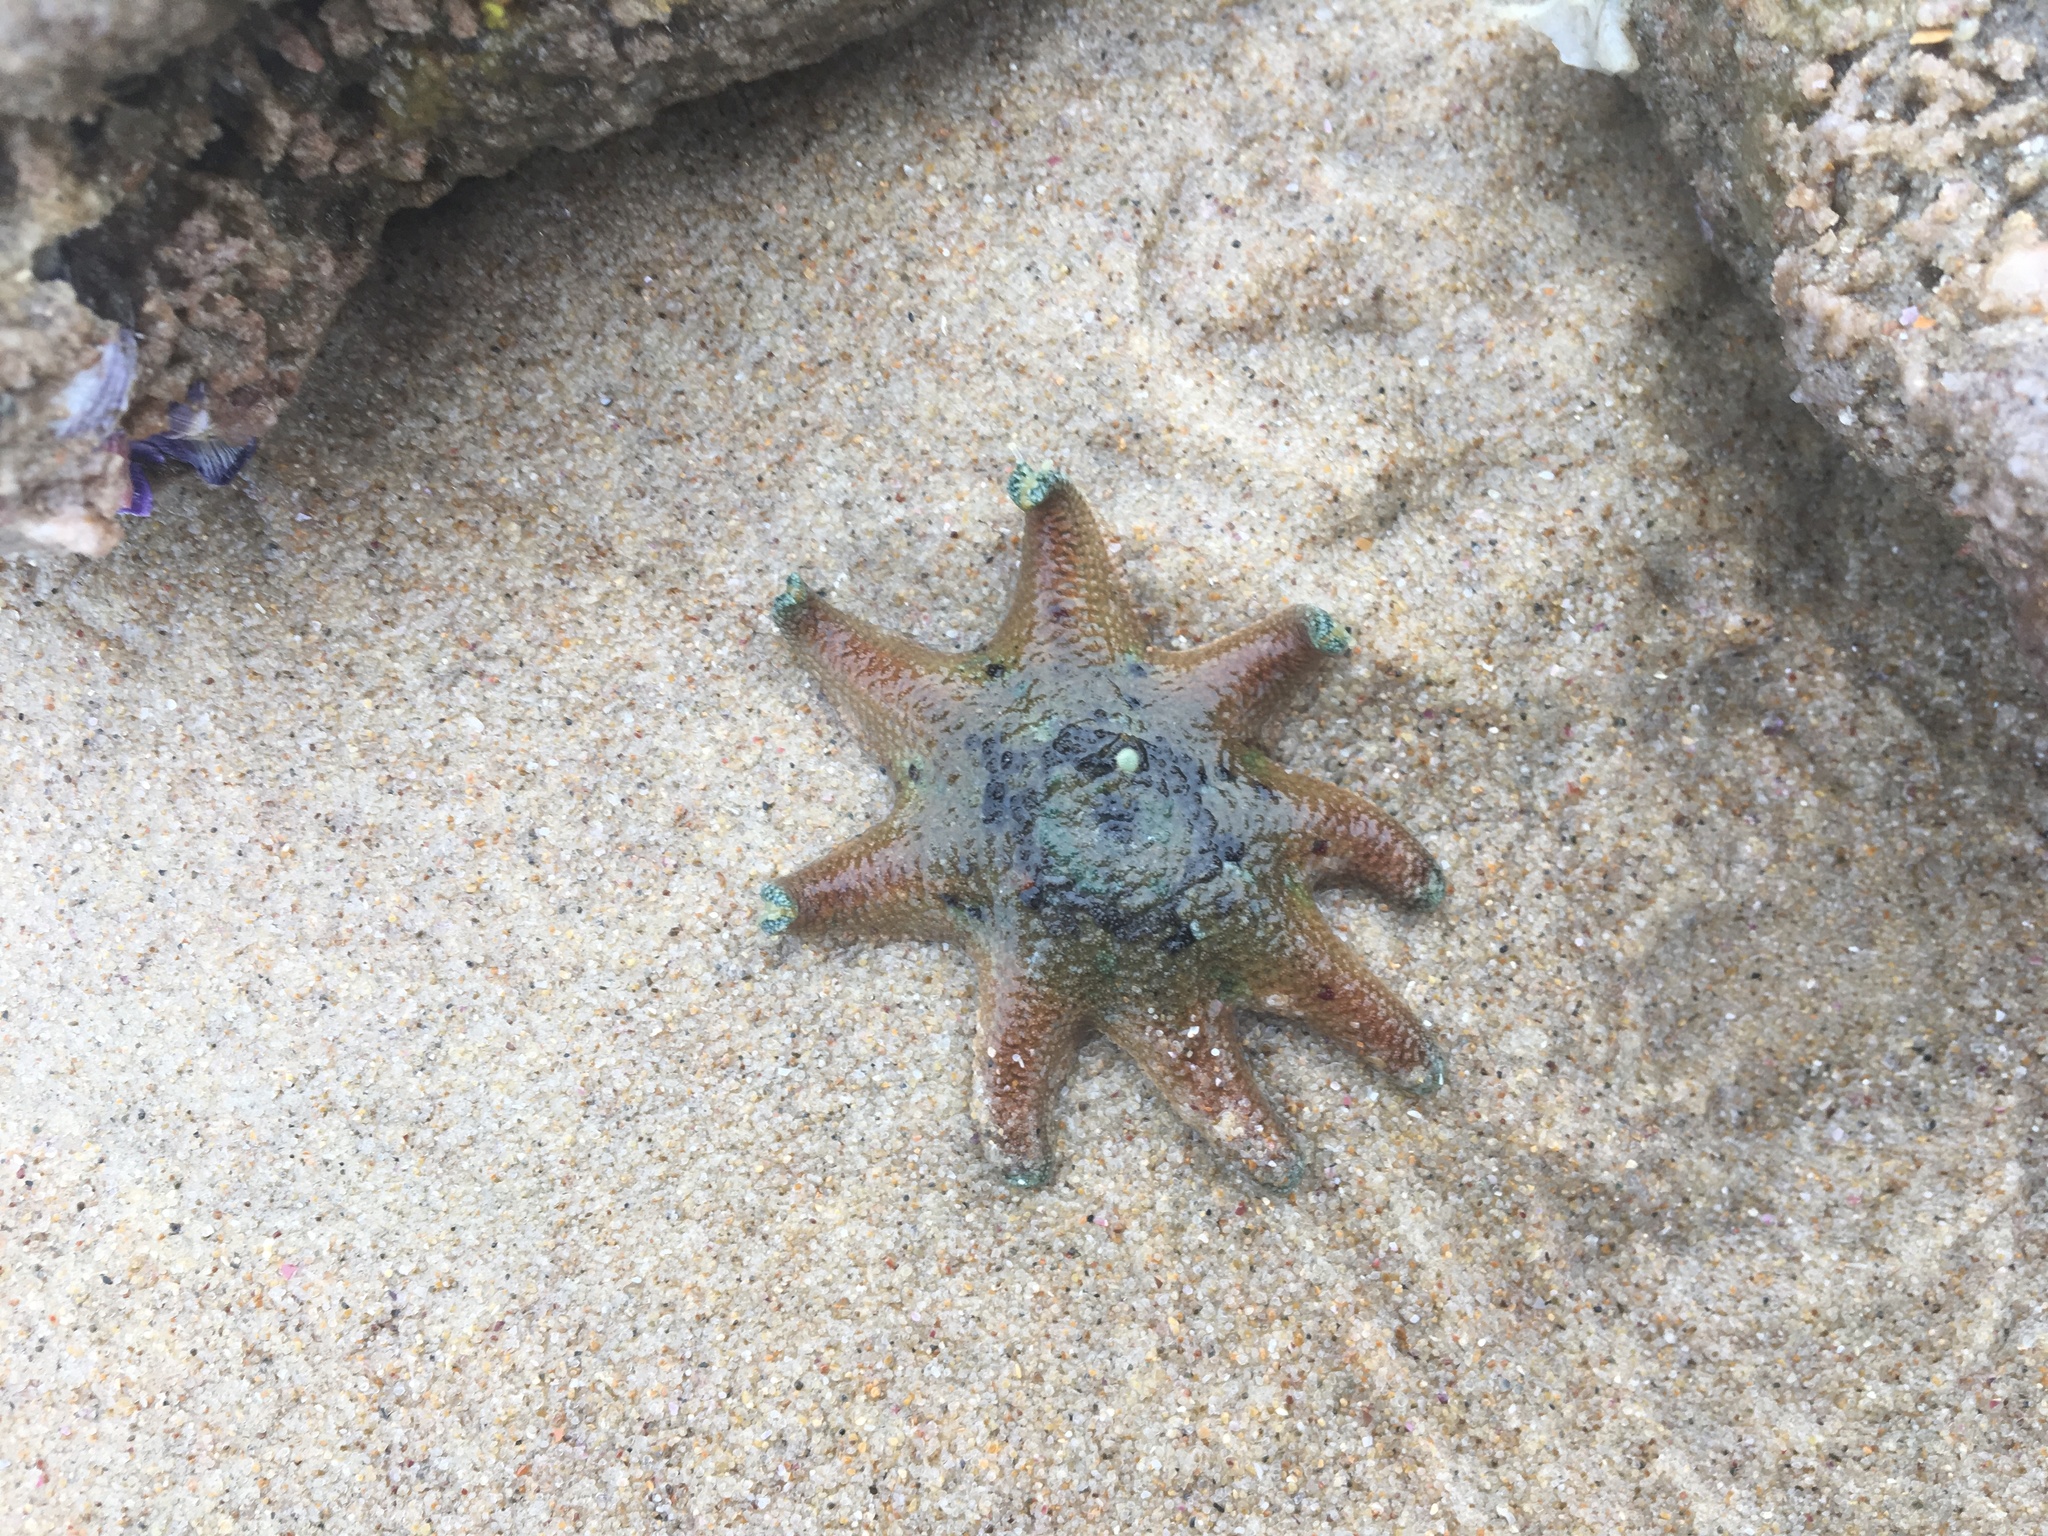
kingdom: Animalia
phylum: Echinodermata
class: Asteroidea
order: Valvatida
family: Asterinidae
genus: Meridiastra
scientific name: Meridiastra calcar
